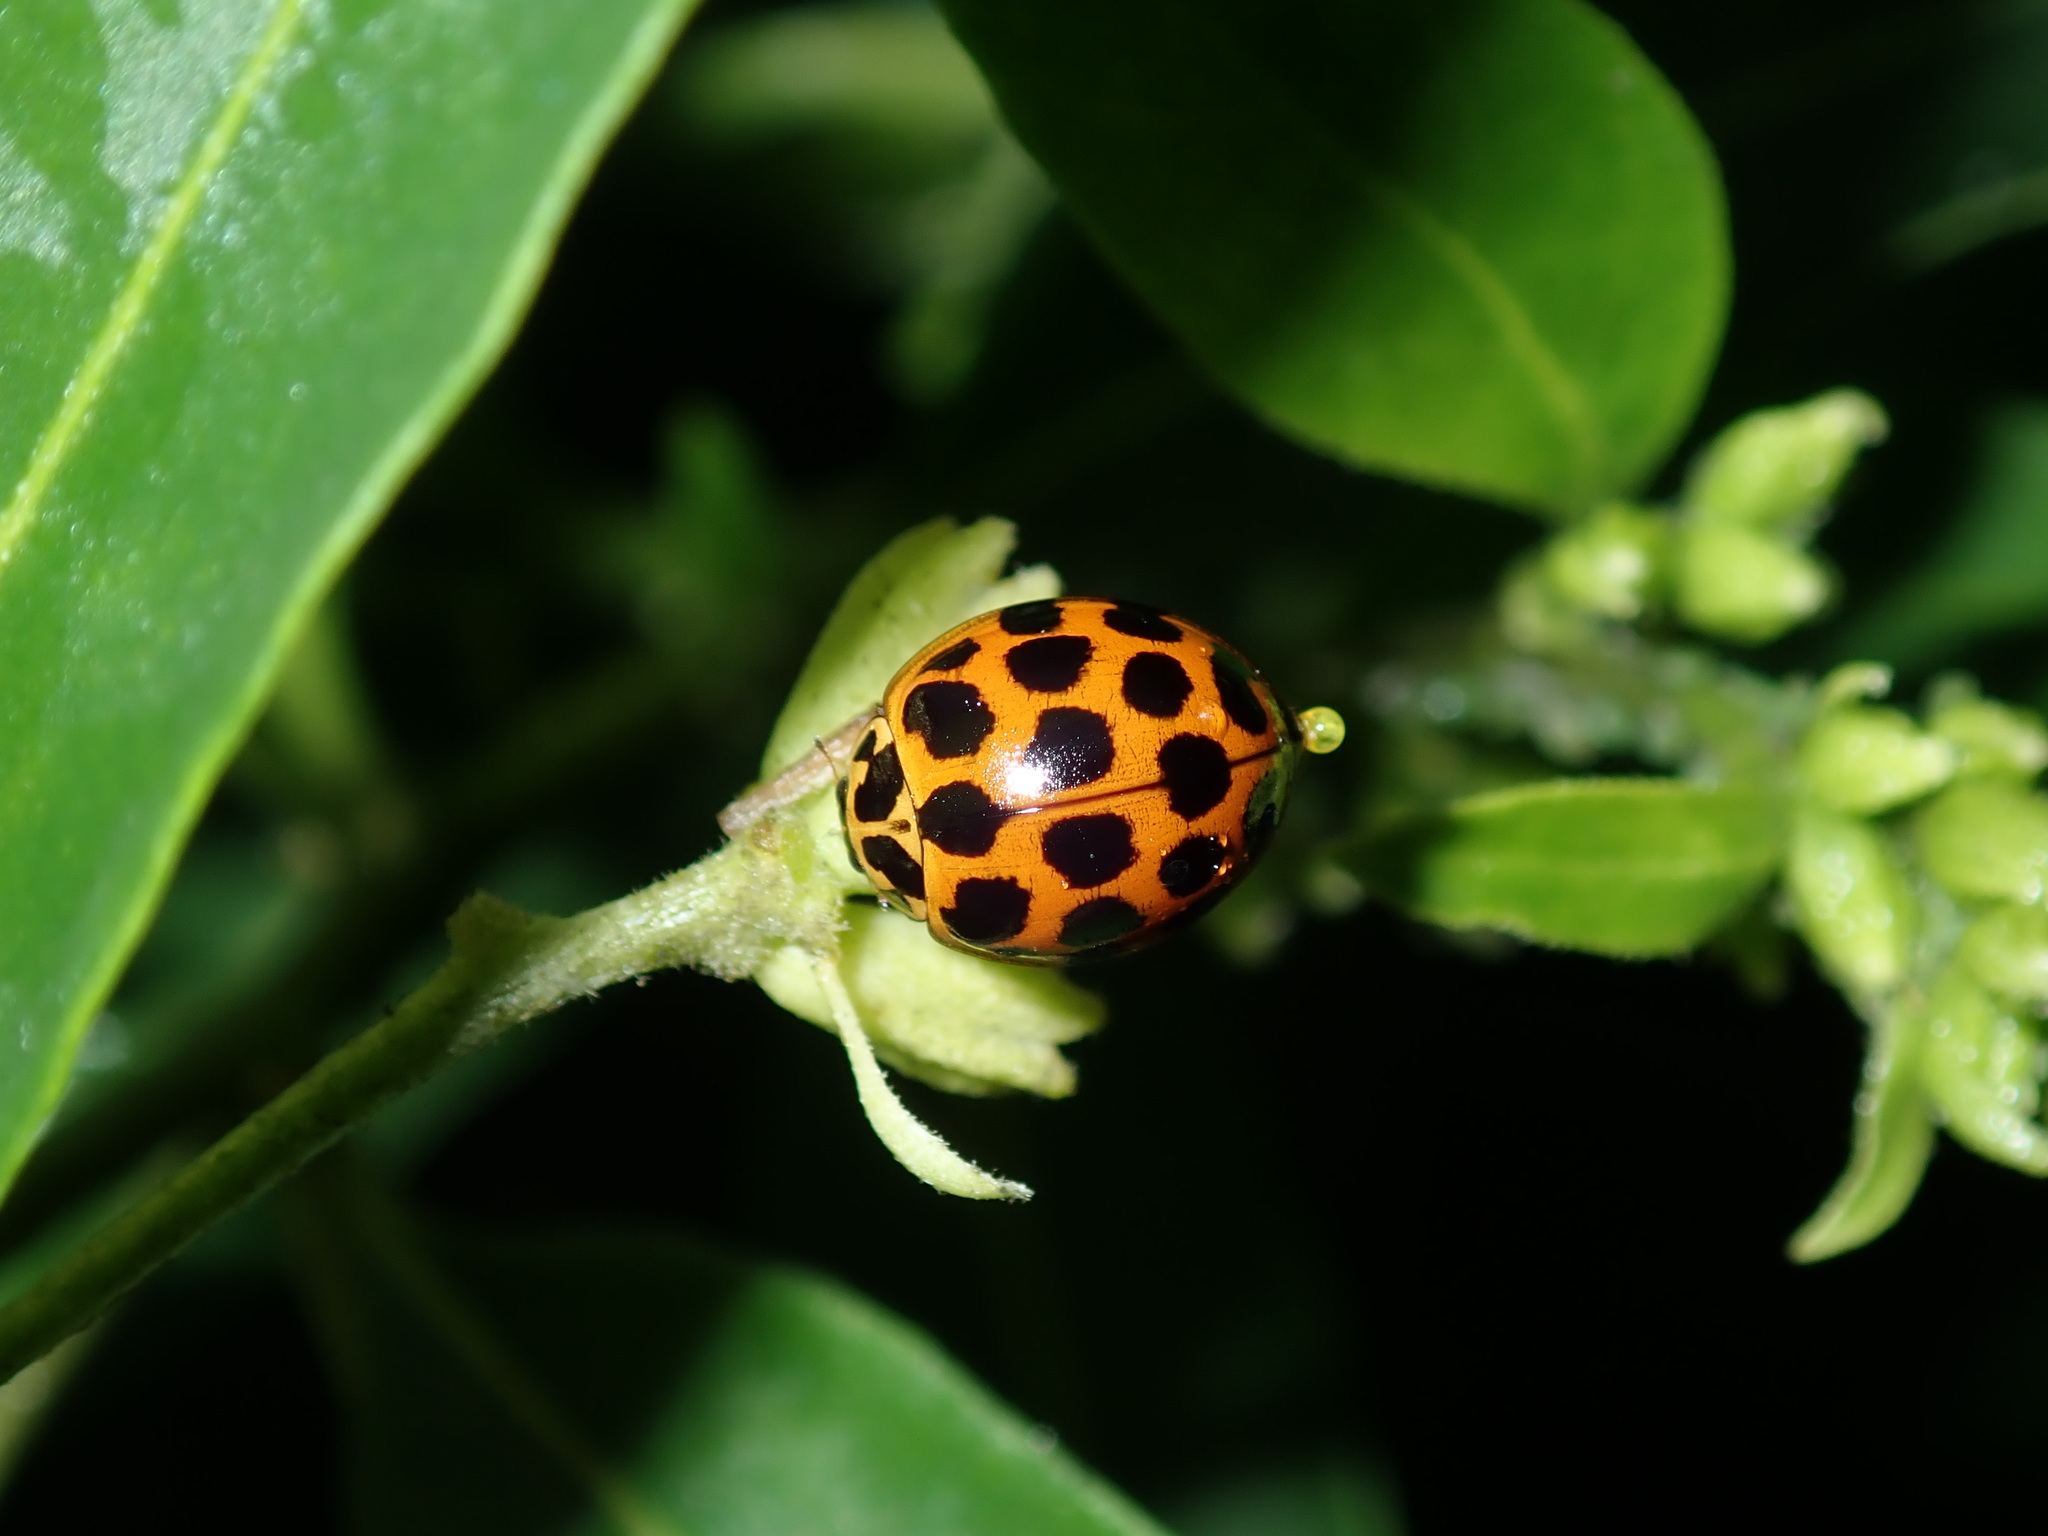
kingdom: Animalia
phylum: Arthropoda
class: Insecta
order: Coleoptera
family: Coccinellidae
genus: Harmonia
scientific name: Harmonia conformis
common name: Common spotted ladybird beetle
